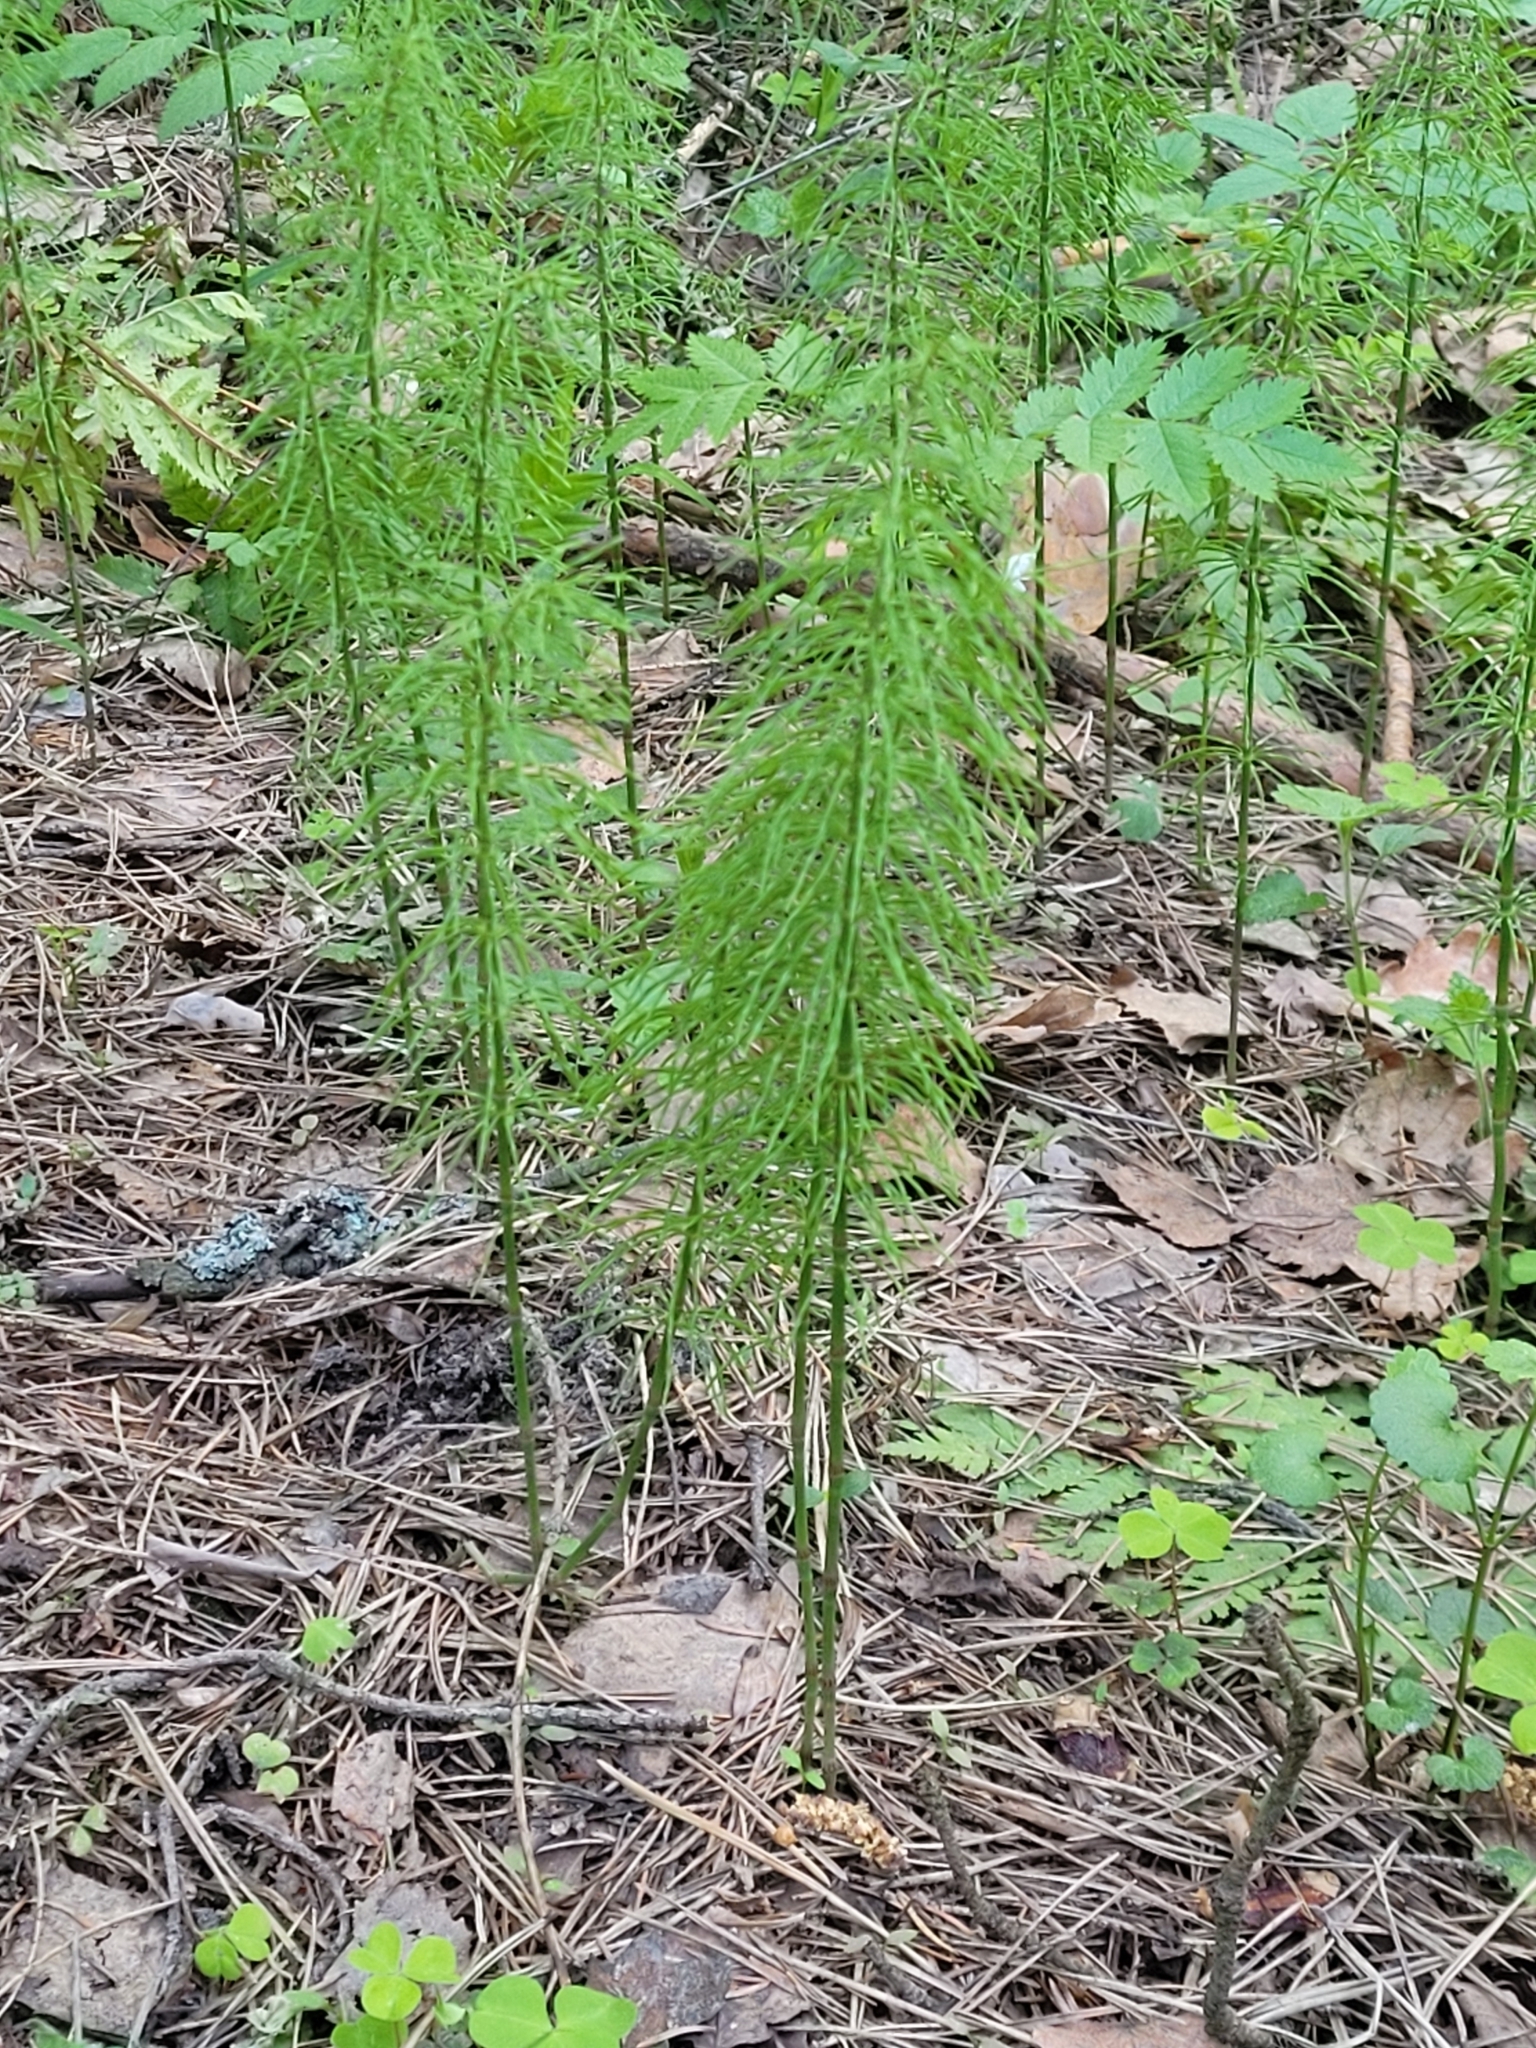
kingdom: Plantae
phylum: Tracheophyta
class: Polypodiopsida
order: Equisetales
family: Equisetaceae
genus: Equisetum
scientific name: Equisetum pratense
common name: Meadow horsetail
